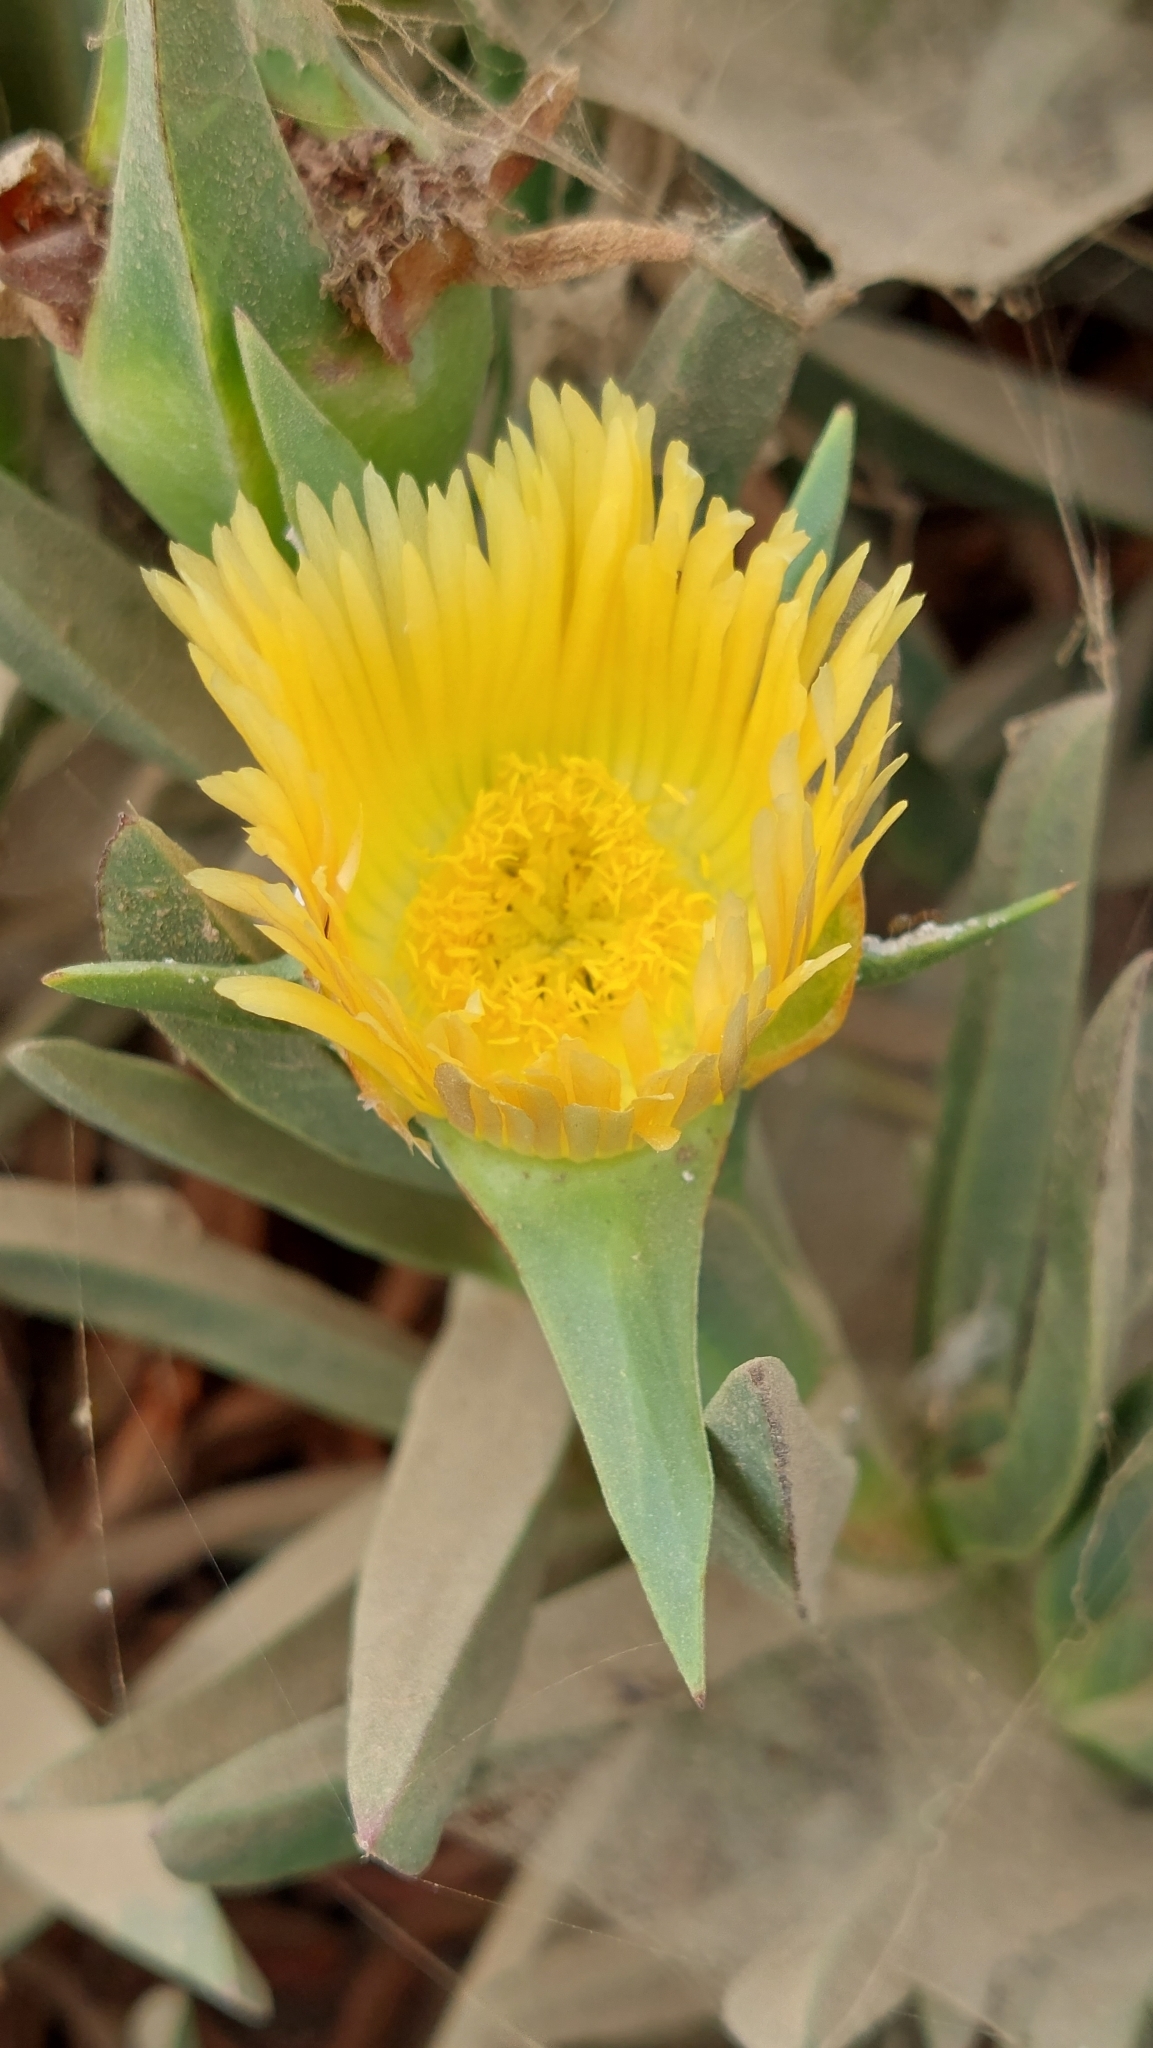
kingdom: Plantae
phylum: Tracheophyta
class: Magnoliopsida
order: Caryophyllales
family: Aizoaceae
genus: Carpobrotus
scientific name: Carpobrotus edulis
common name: Hottentot-fig
